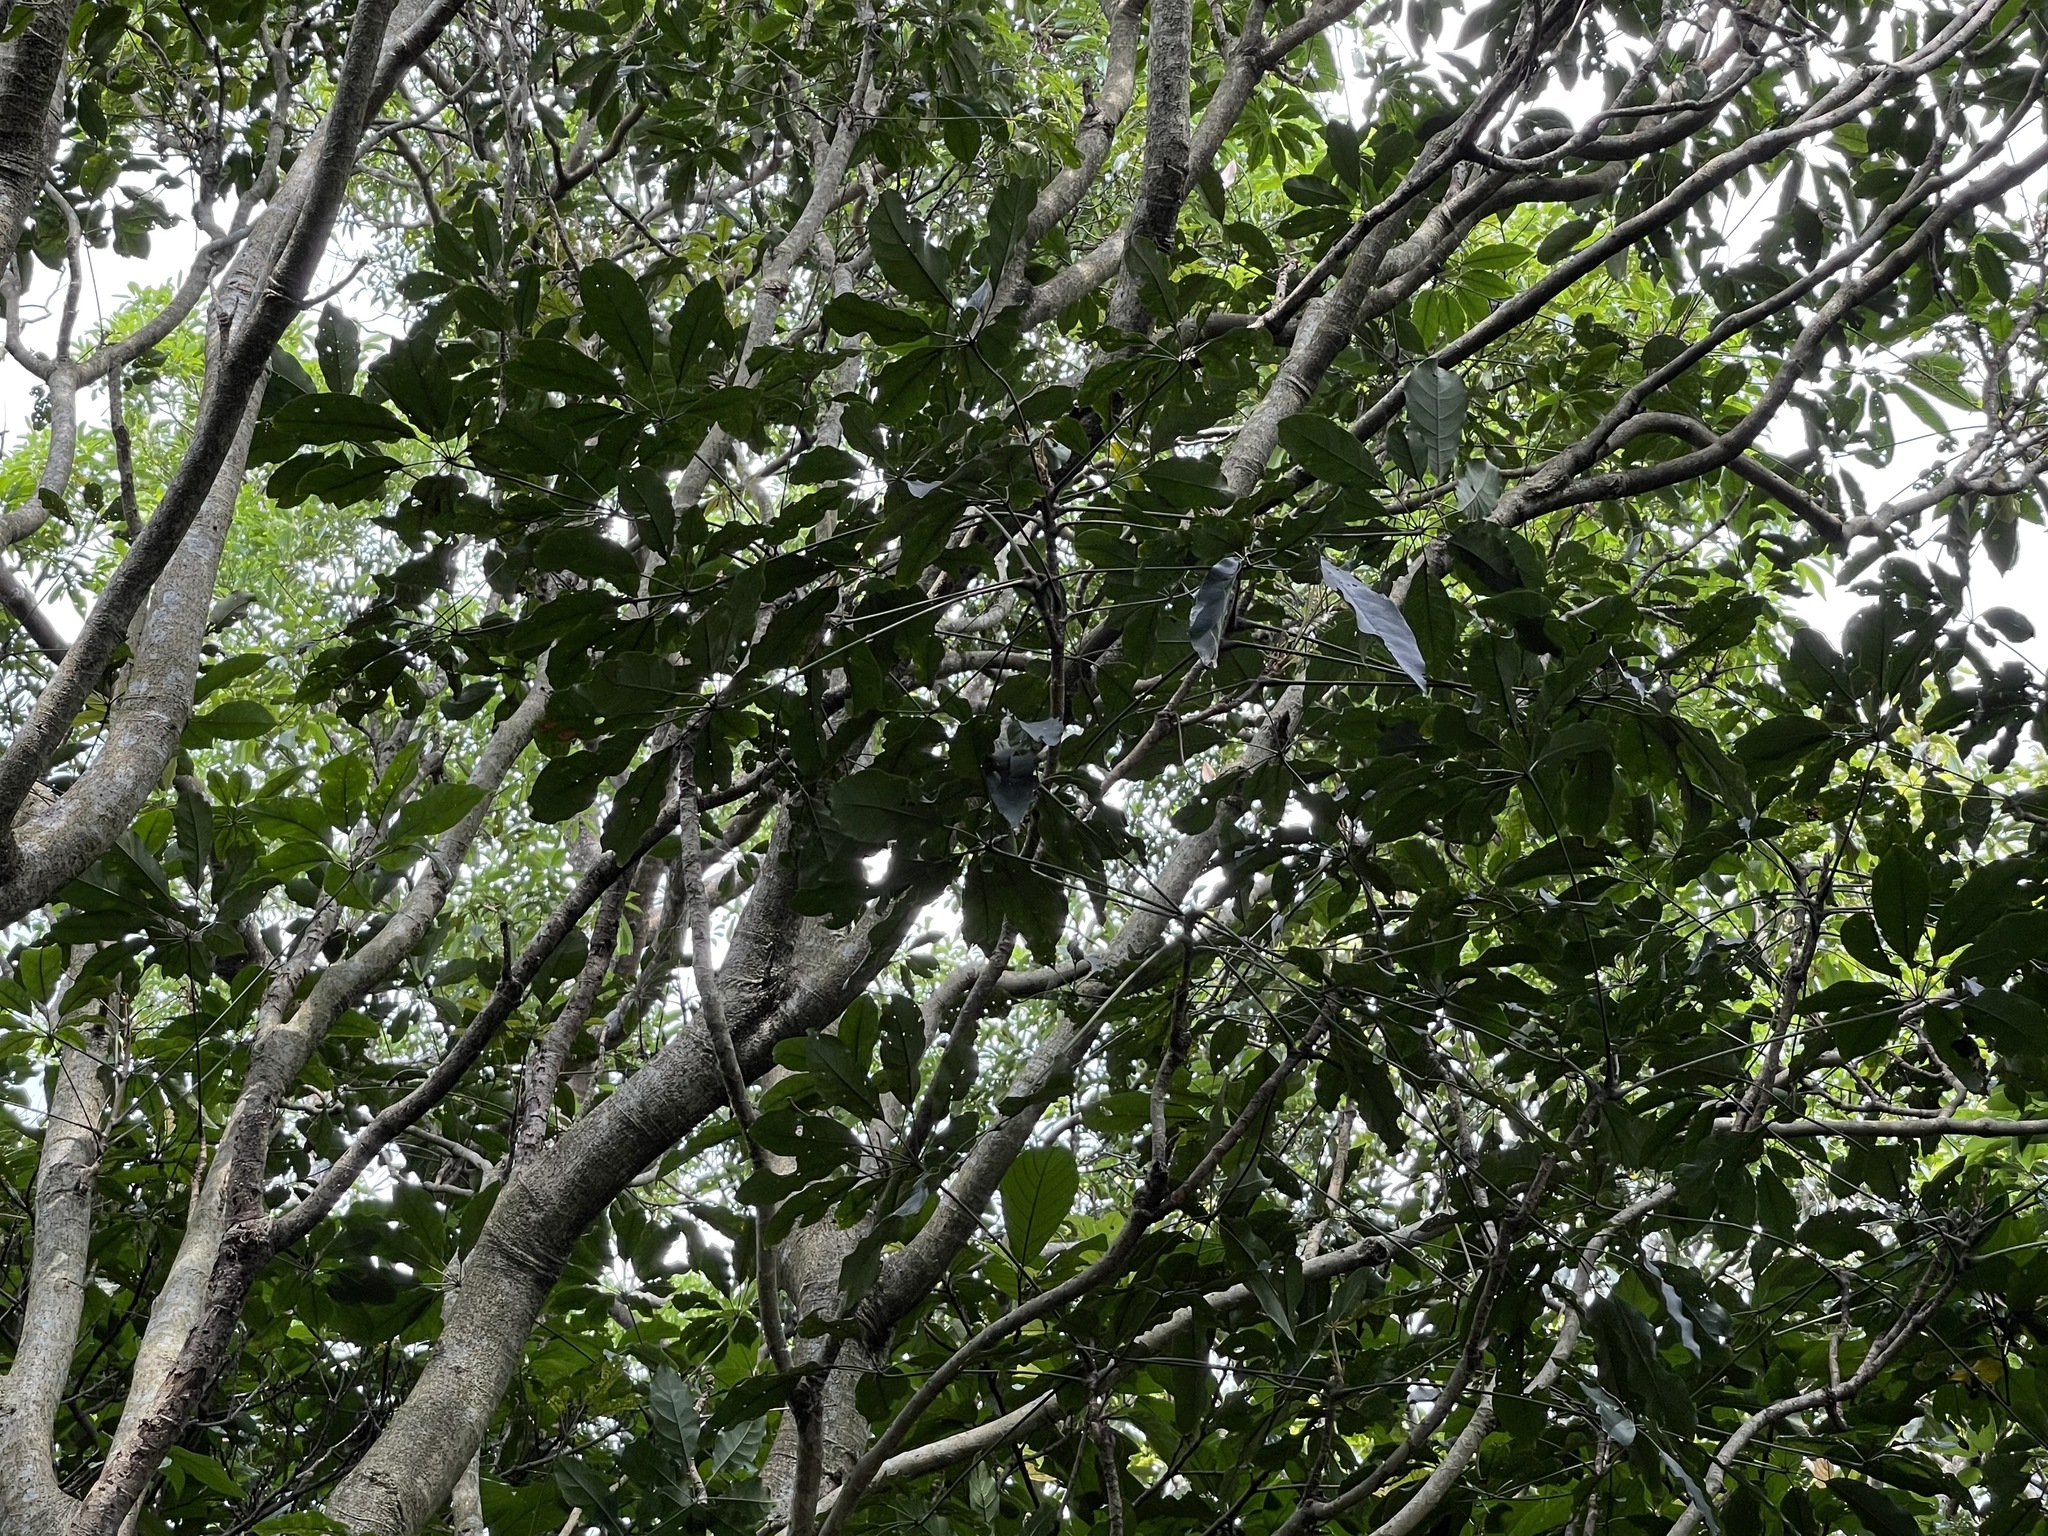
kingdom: Plantae
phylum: Tracheophyta
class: Magnoliopsida
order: Apiales
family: Araliaceae
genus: Heptapleurum
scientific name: Heptapleurum heptaphyllum
